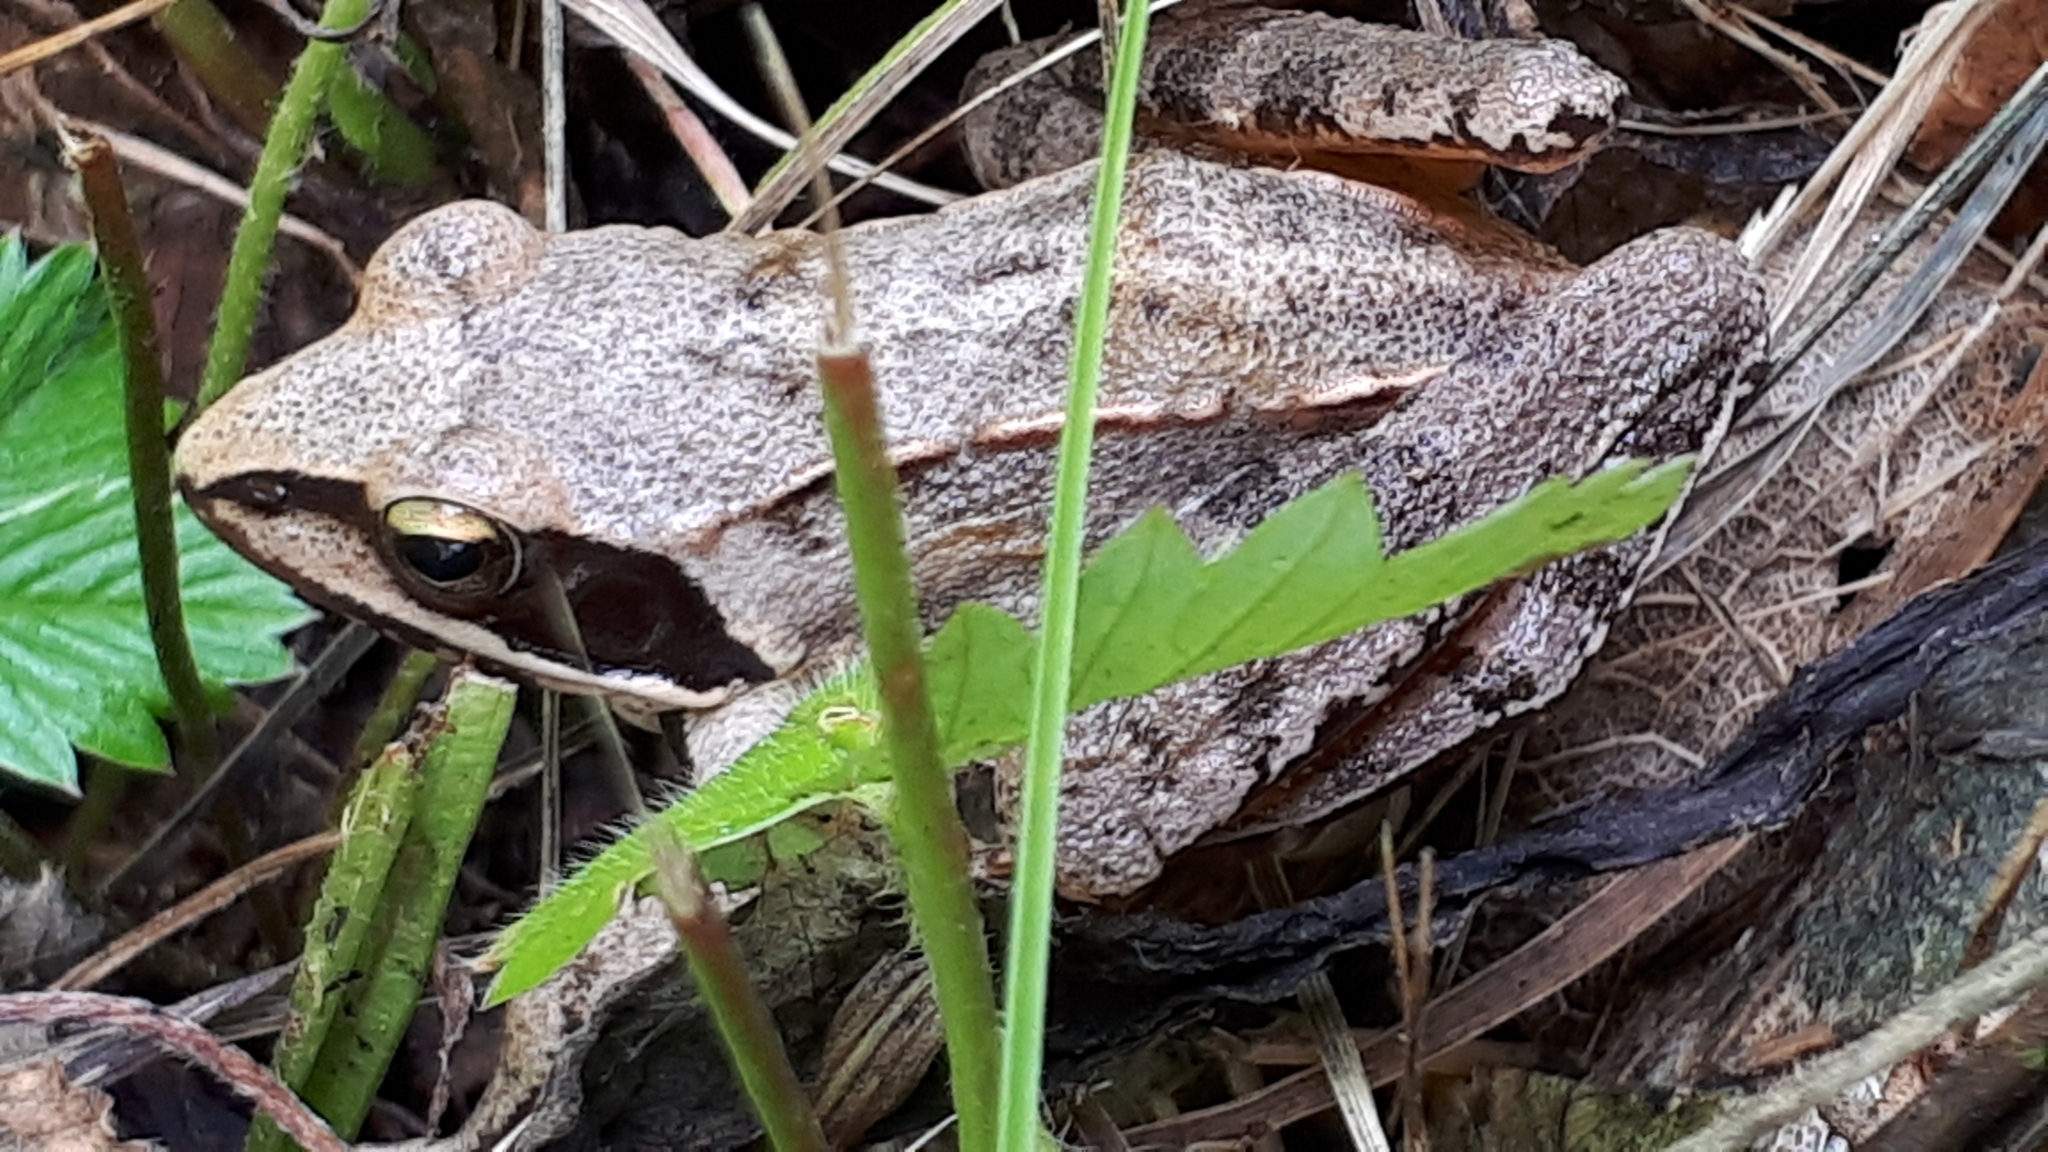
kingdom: Animalia
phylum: Chordata
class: Amphibia
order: Anura
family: Ranidae
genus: Rana
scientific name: Rana dalmatina
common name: Agile frog
